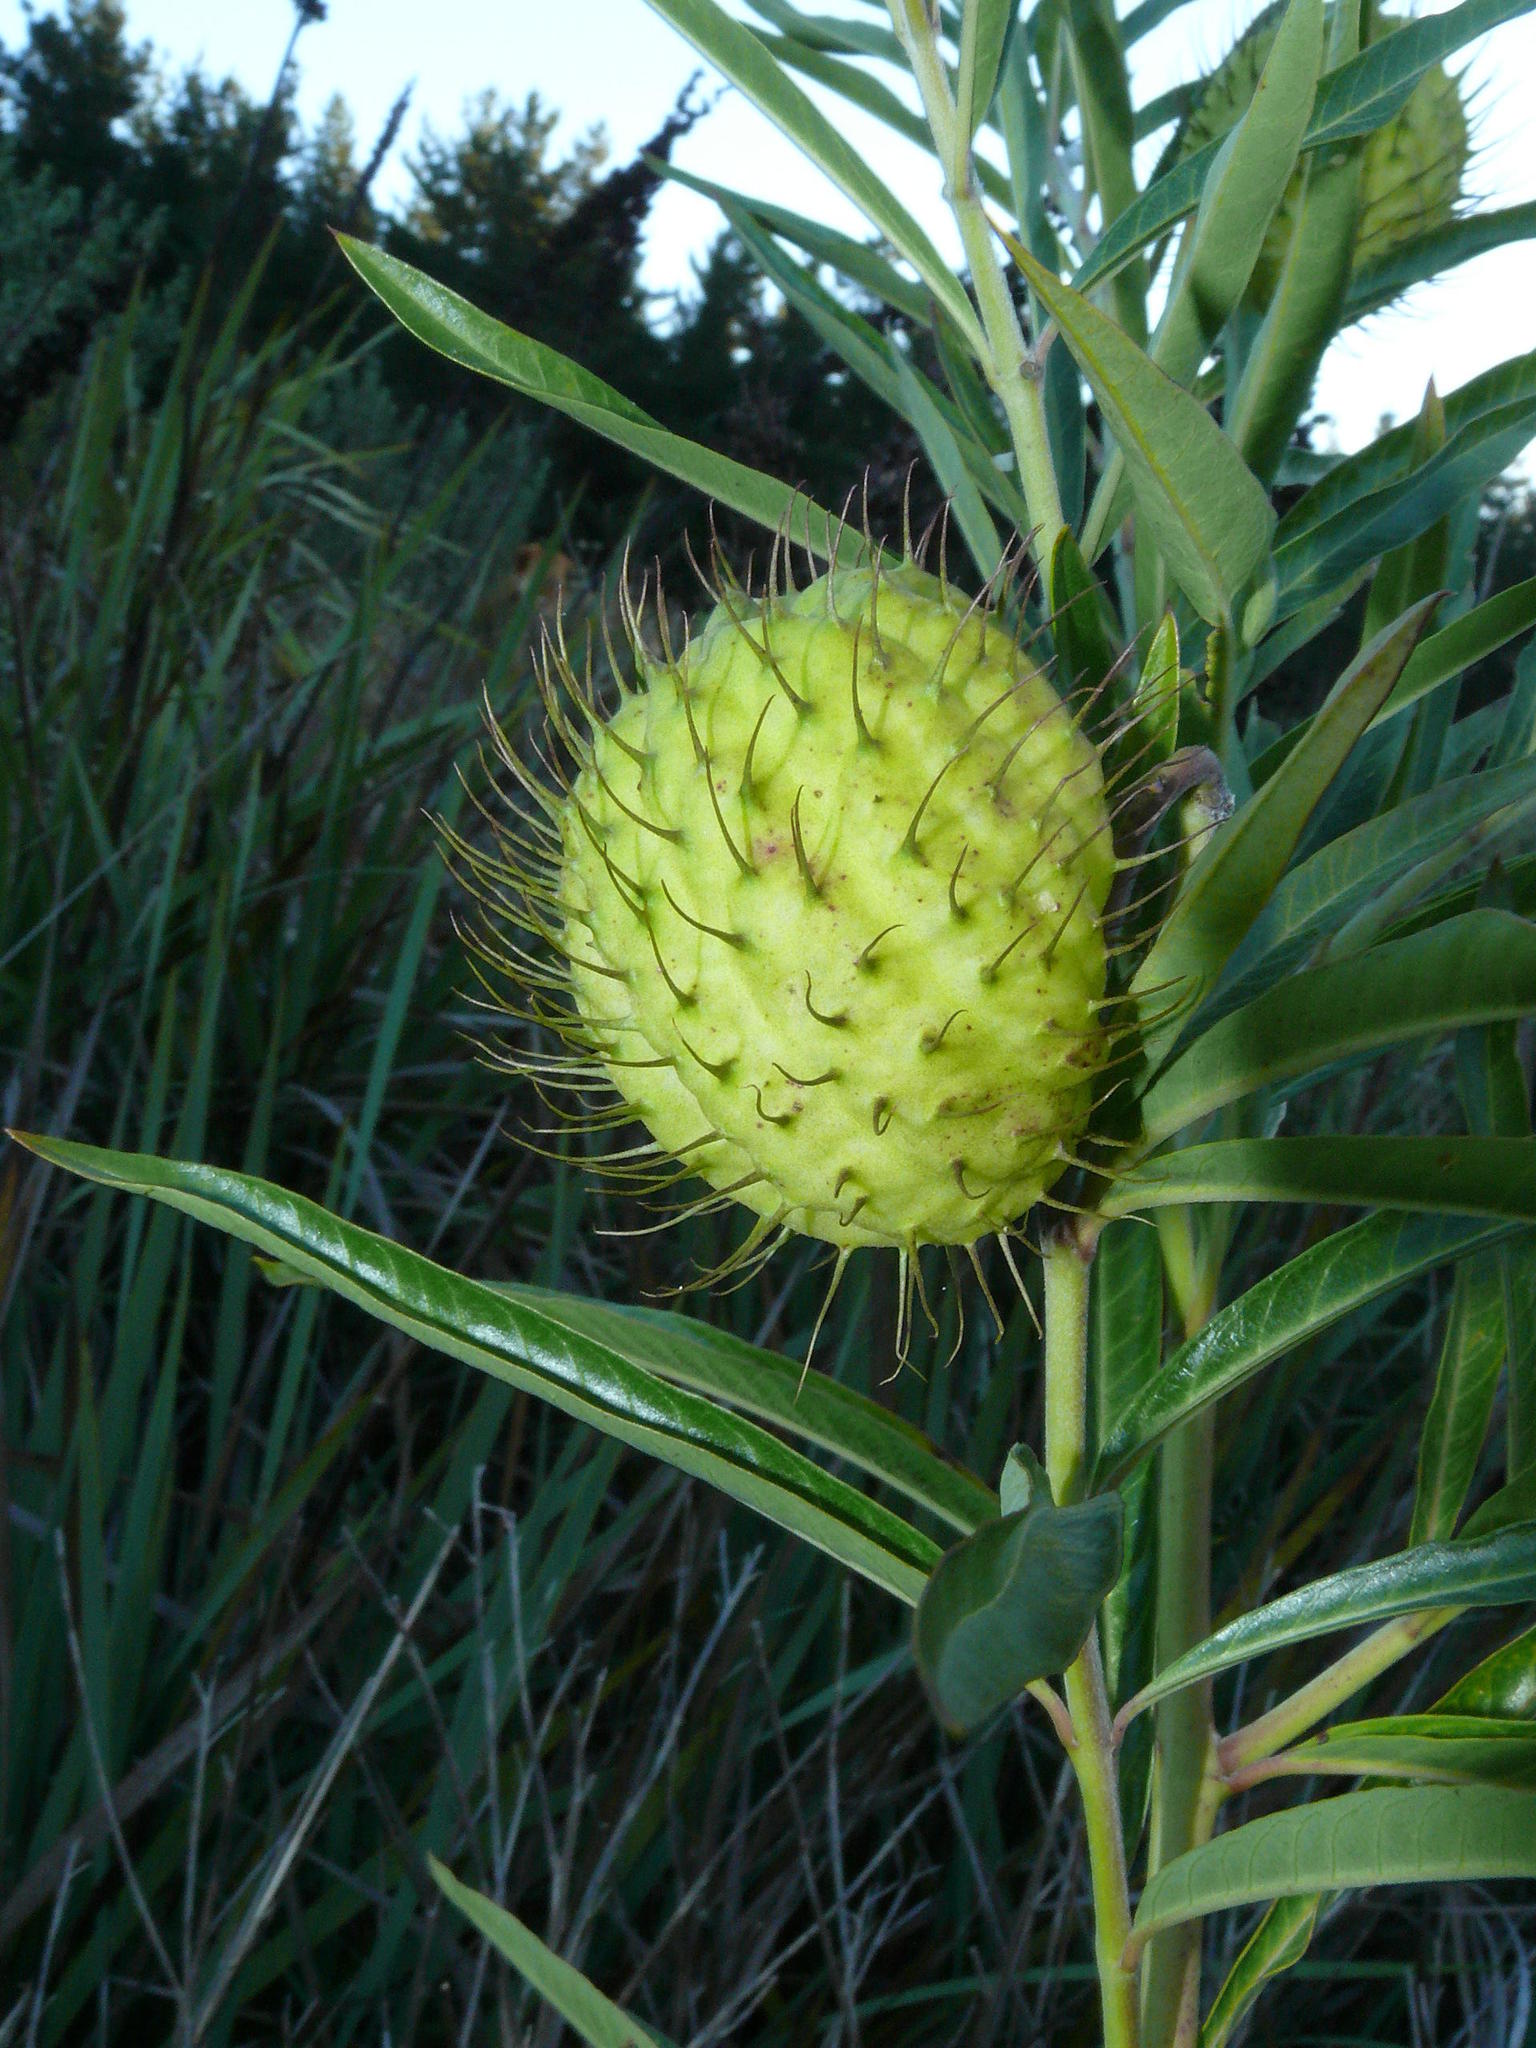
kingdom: Plantae
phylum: Tracheophyta
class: Magnoliopsida
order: Gentianales
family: Apocynaceae
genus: Gomphocarpus
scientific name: Gomphocarpus physocarpus
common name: Balloon cotton bush
